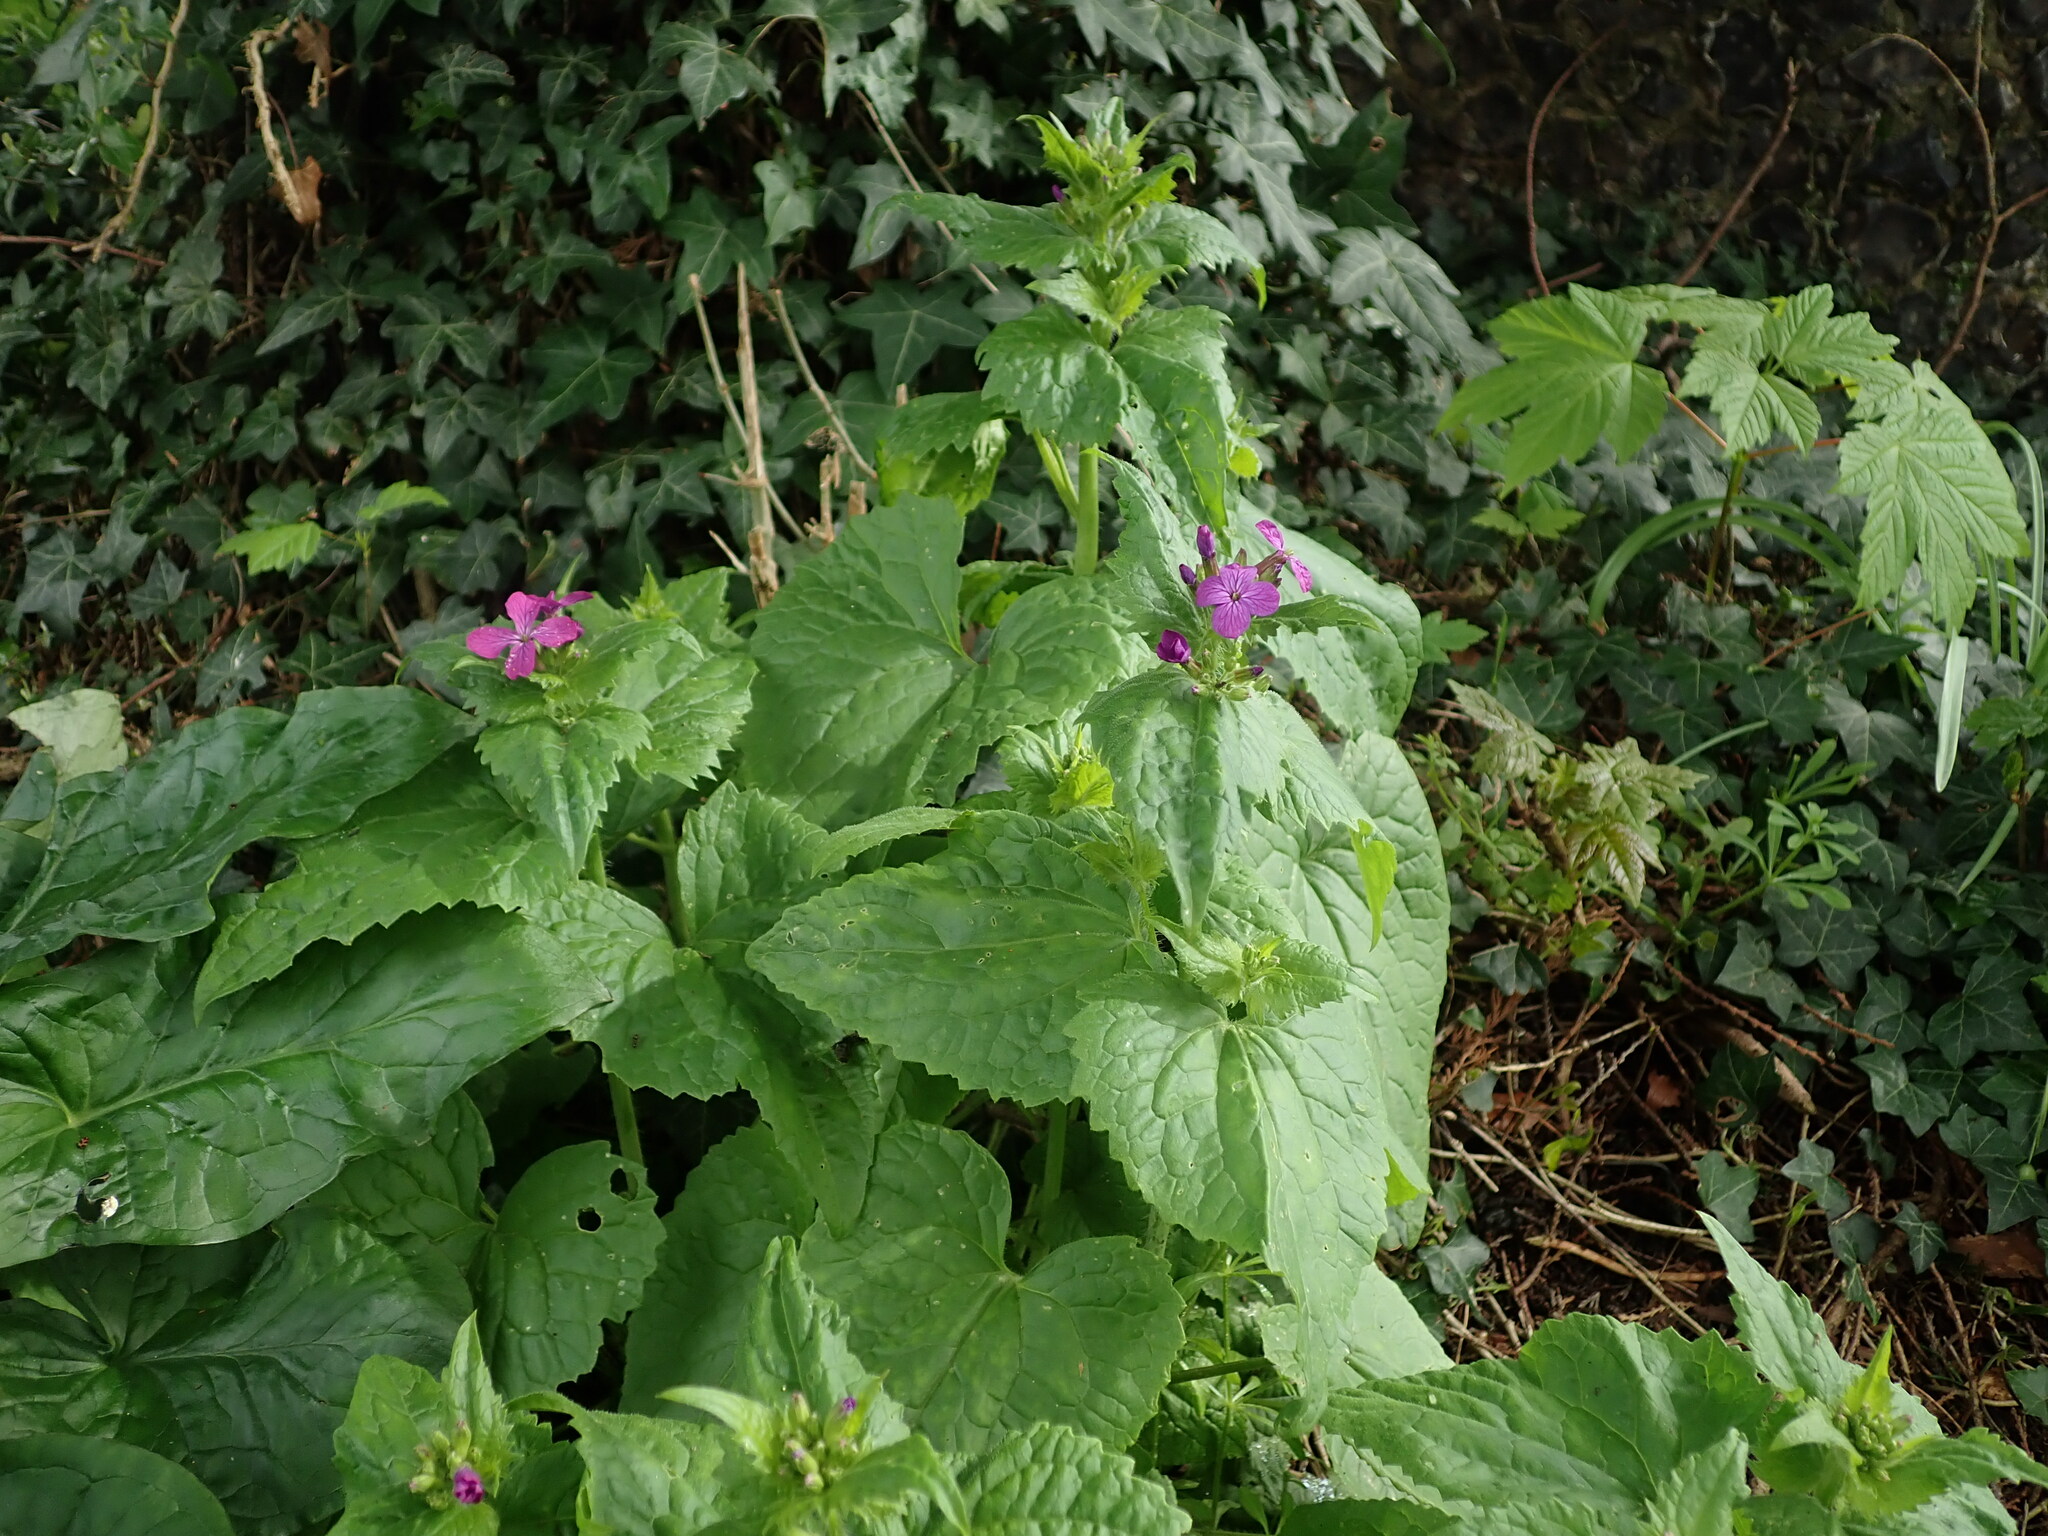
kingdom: Plantae
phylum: Tracheophyta
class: Magnoliopsida
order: Brassicales
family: Brassicaceae
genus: Lunaria
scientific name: Lunaria annua
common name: Honesty
